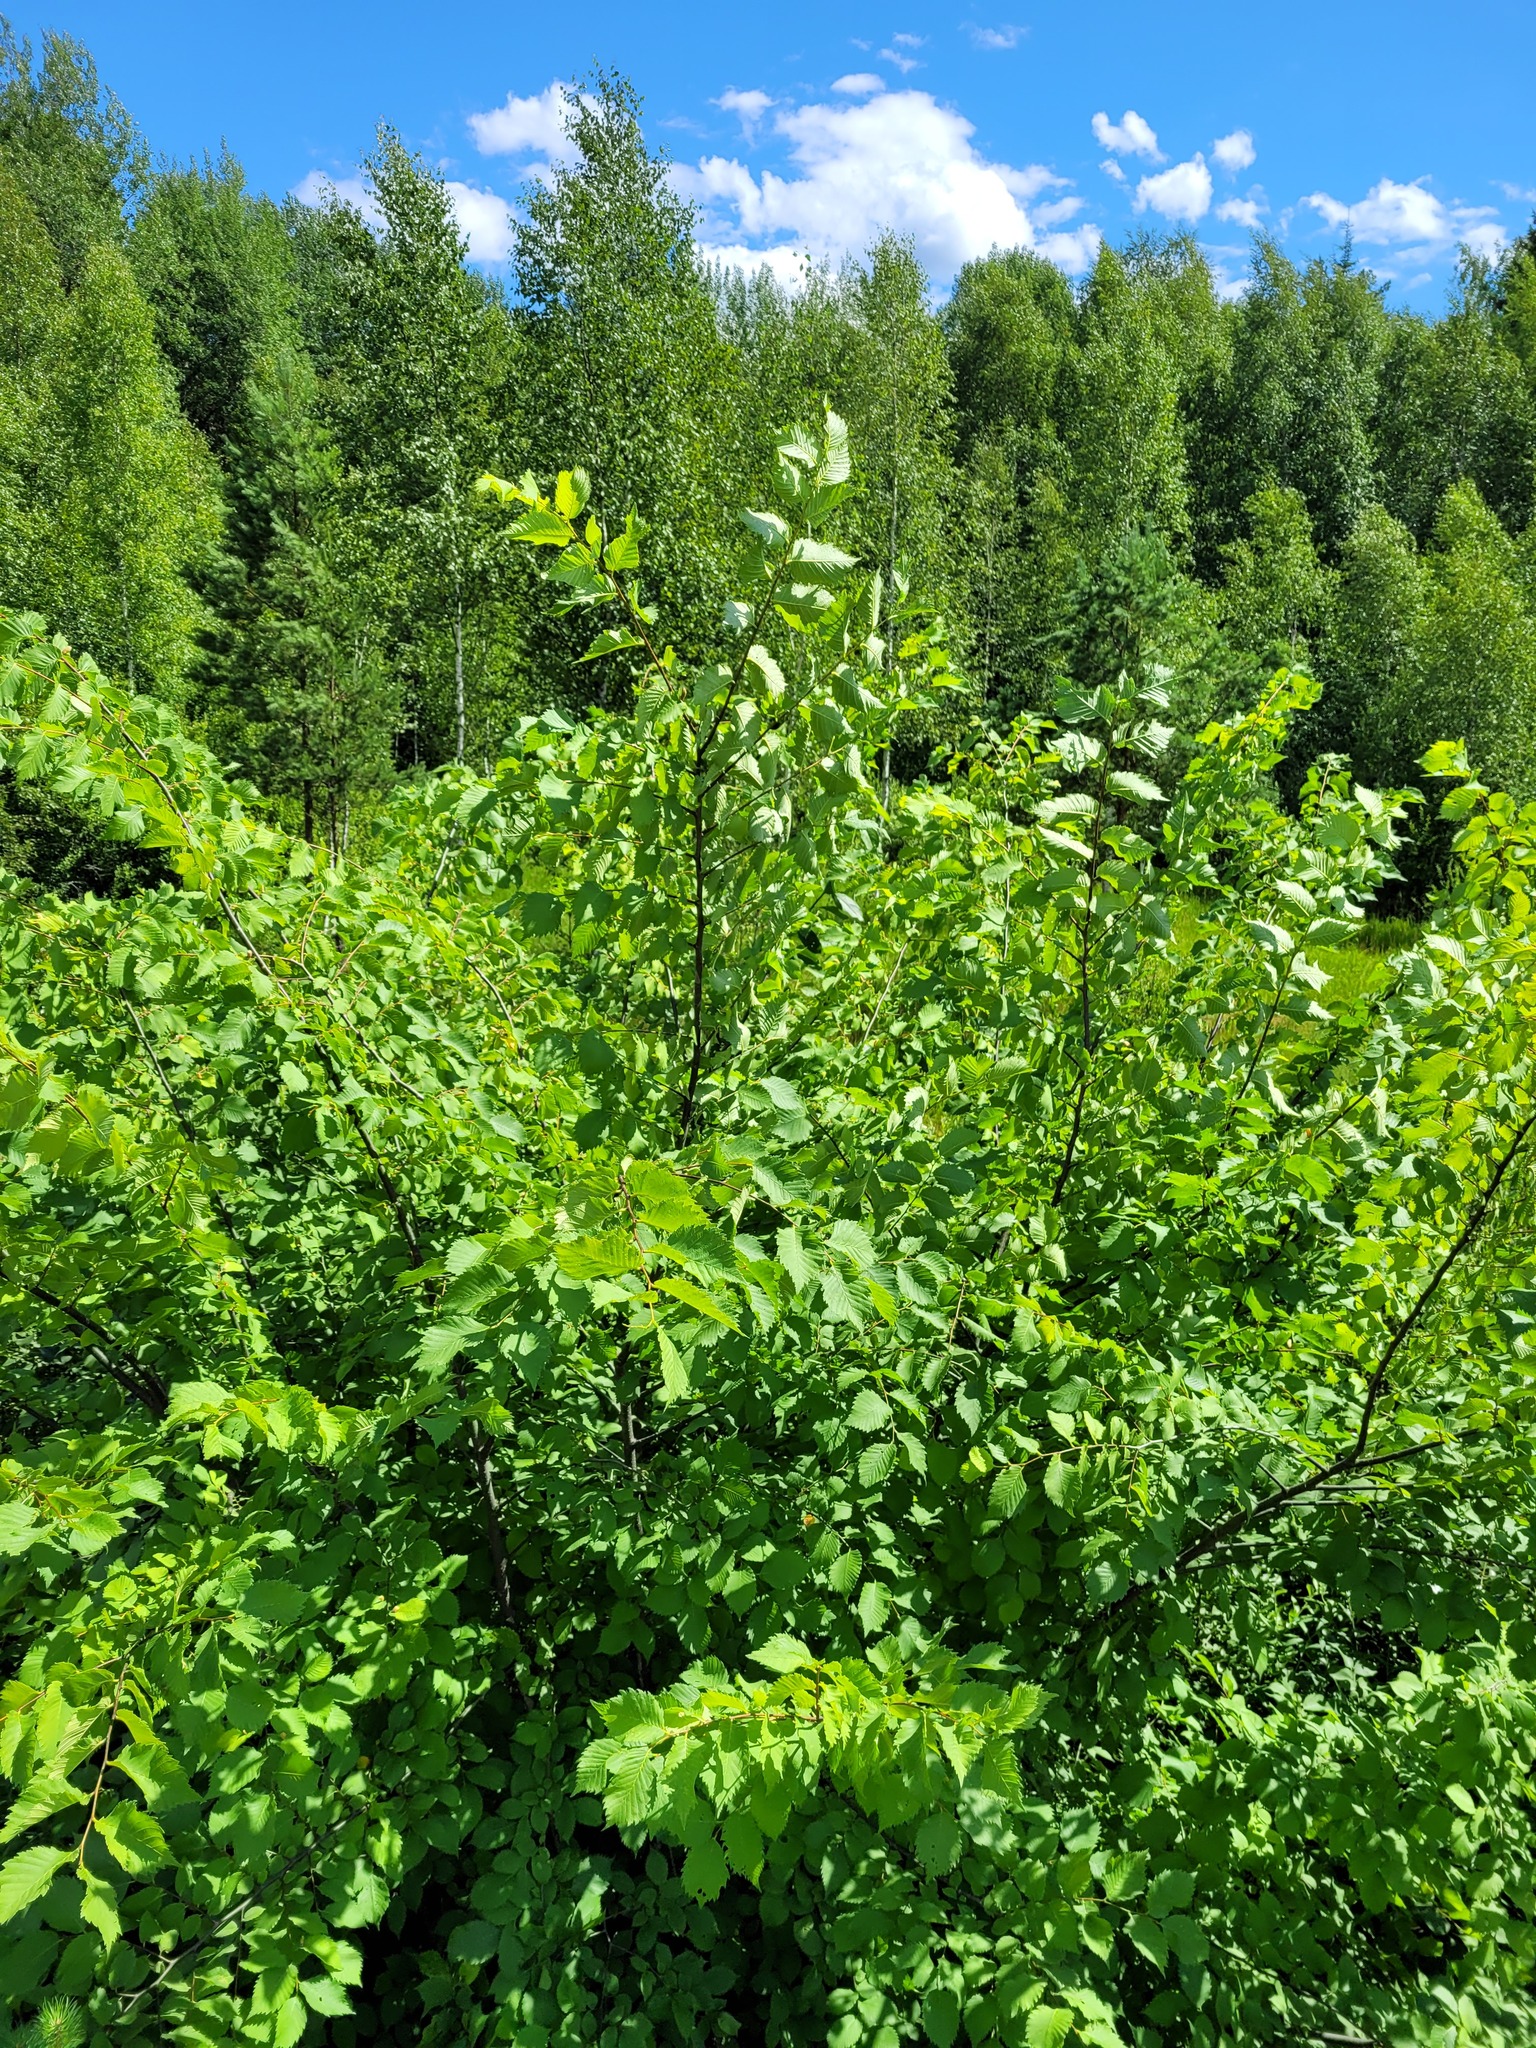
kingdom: Plantae
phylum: Tracheophyta
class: Magnoliopsida
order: Rosales
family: Ulmaceae
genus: Ulmus
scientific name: Ulmus laevis
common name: European white-elm
